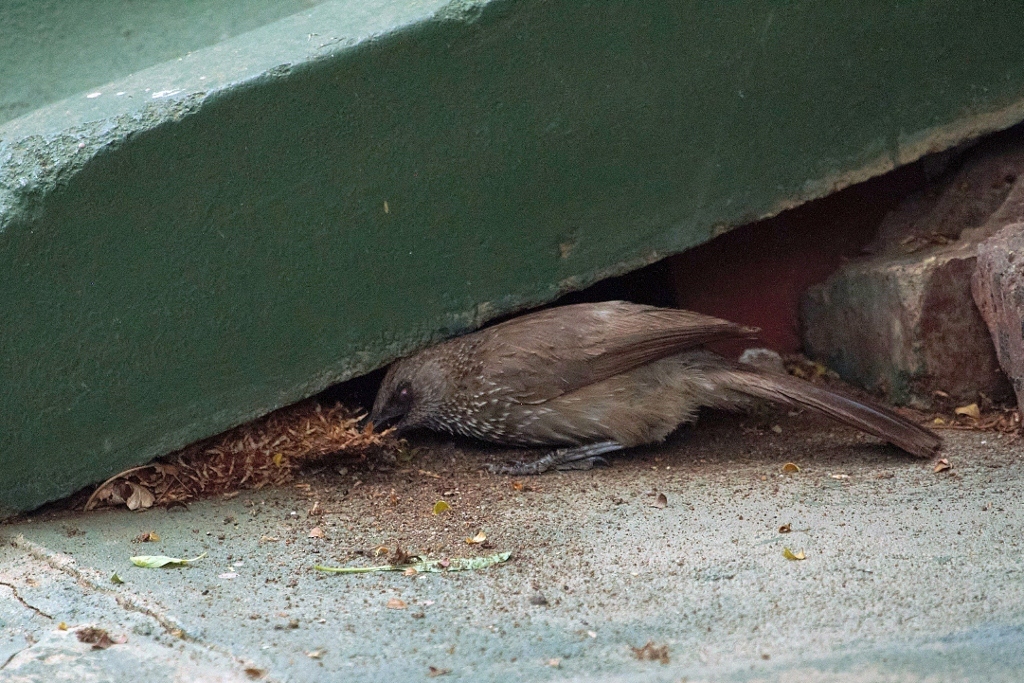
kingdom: Animalia
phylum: Chordata
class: Aves
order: Passeriformes
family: Leiothrichidae
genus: Turdoides
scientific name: Turdoides jardineii
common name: Arrow-marked babbler
